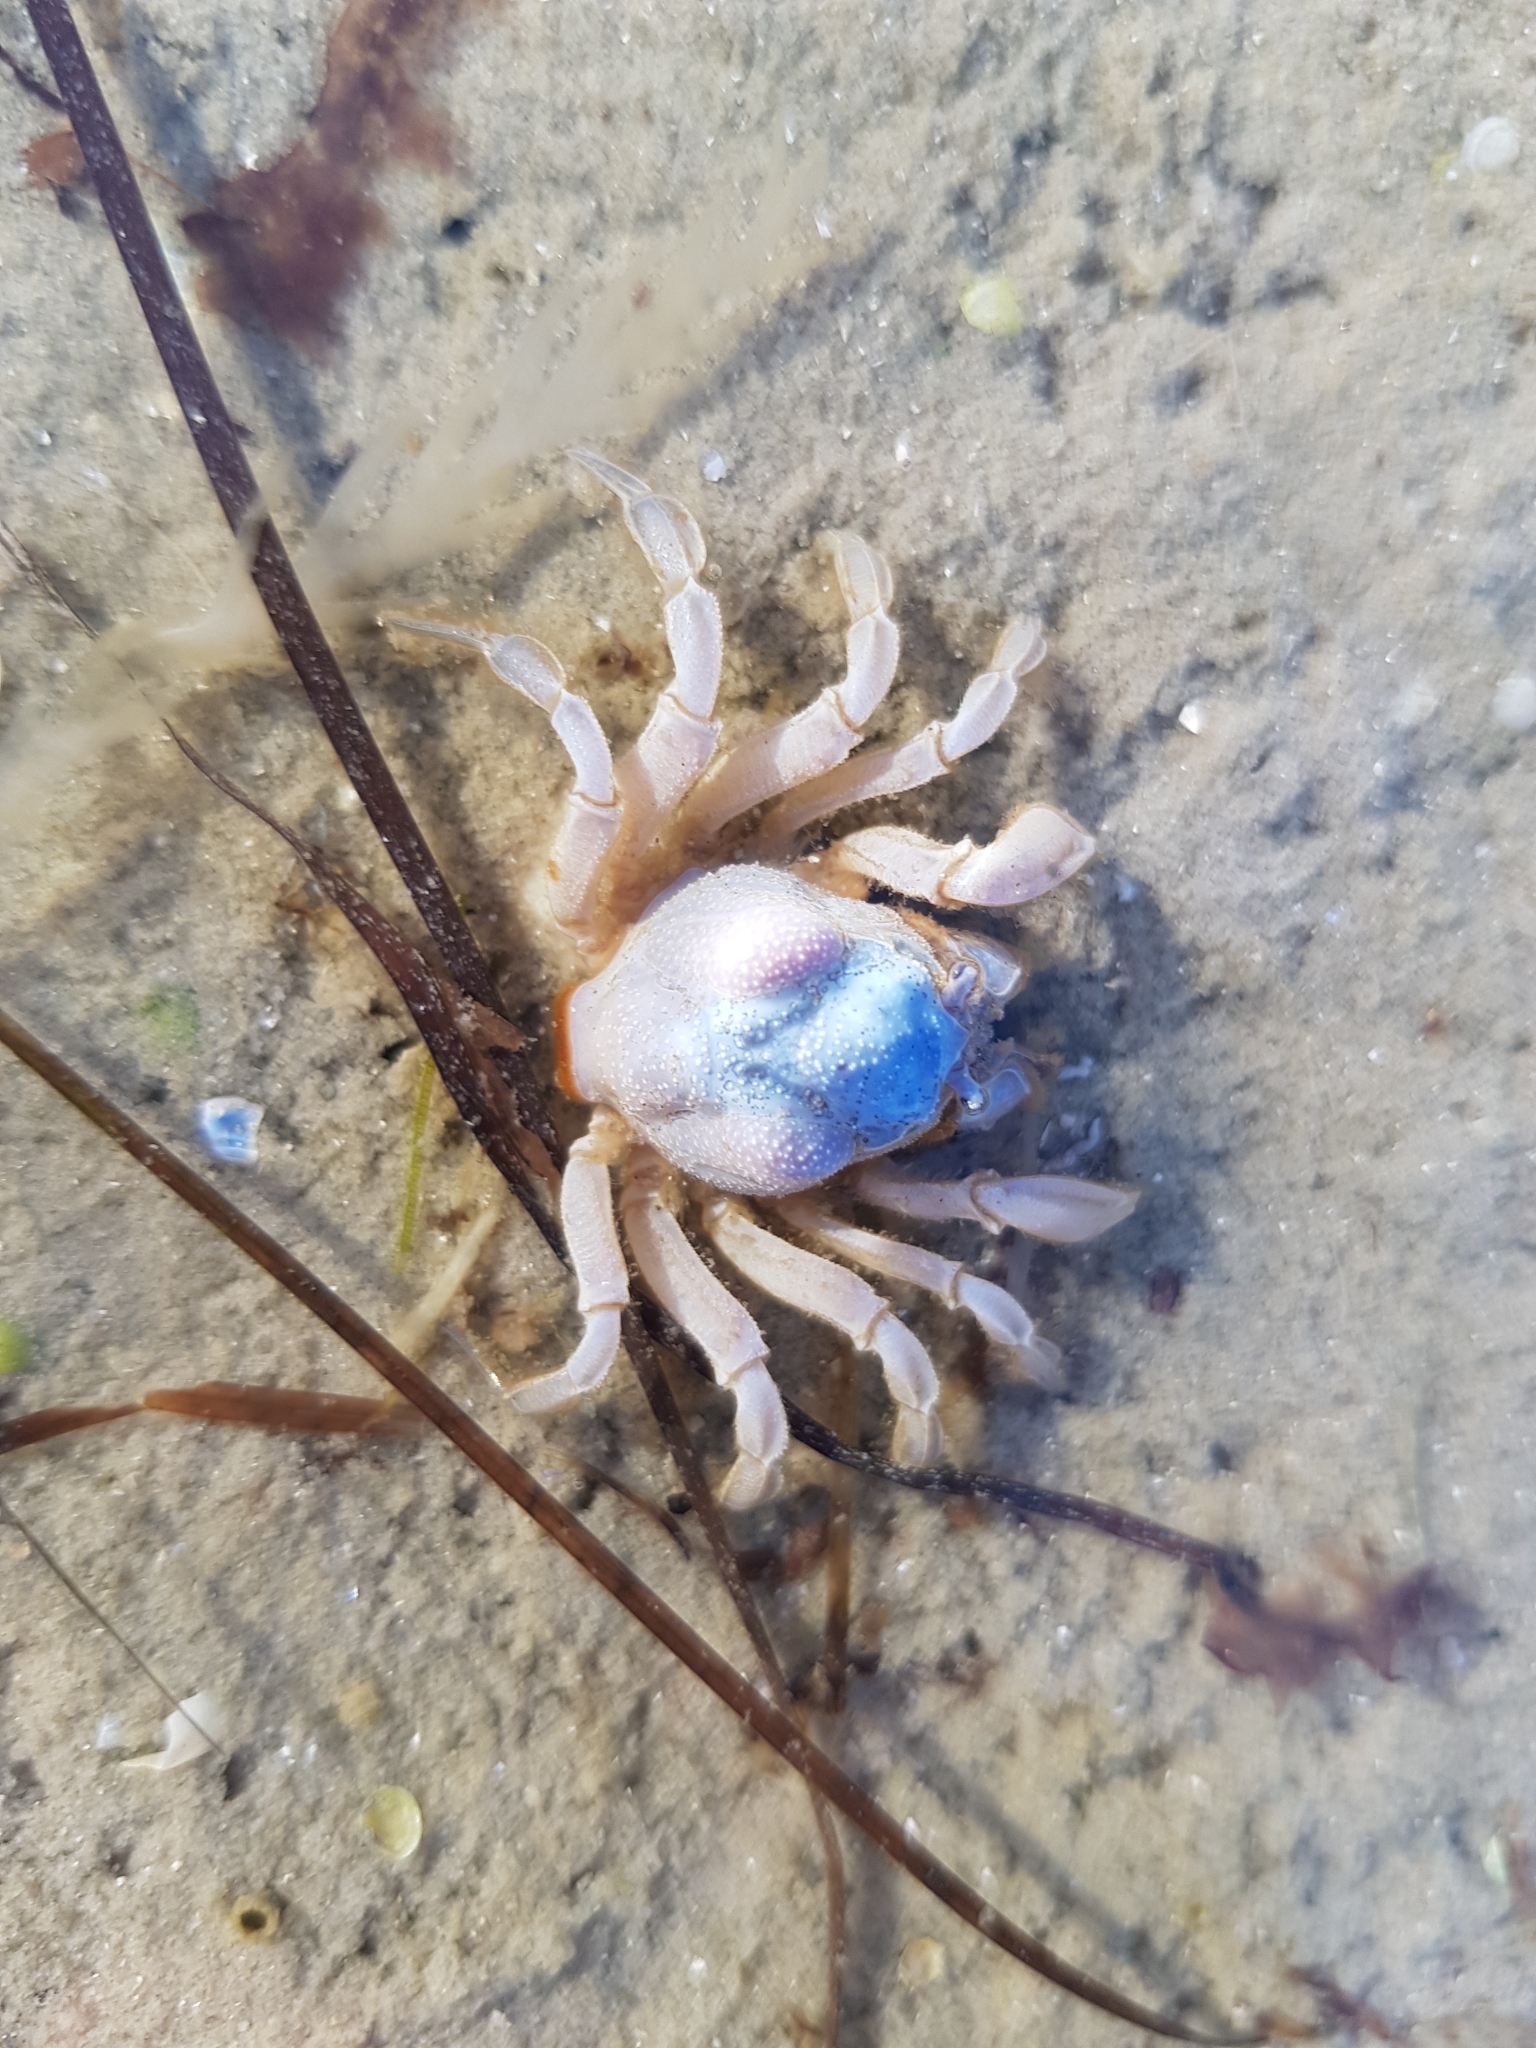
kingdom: Animalia
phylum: Arthropoda
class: Malacostraca
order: Decapoda
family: Mictyridae
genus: Mictyris
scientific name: Mictyris platycheles
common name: Dark blue soldier crab
